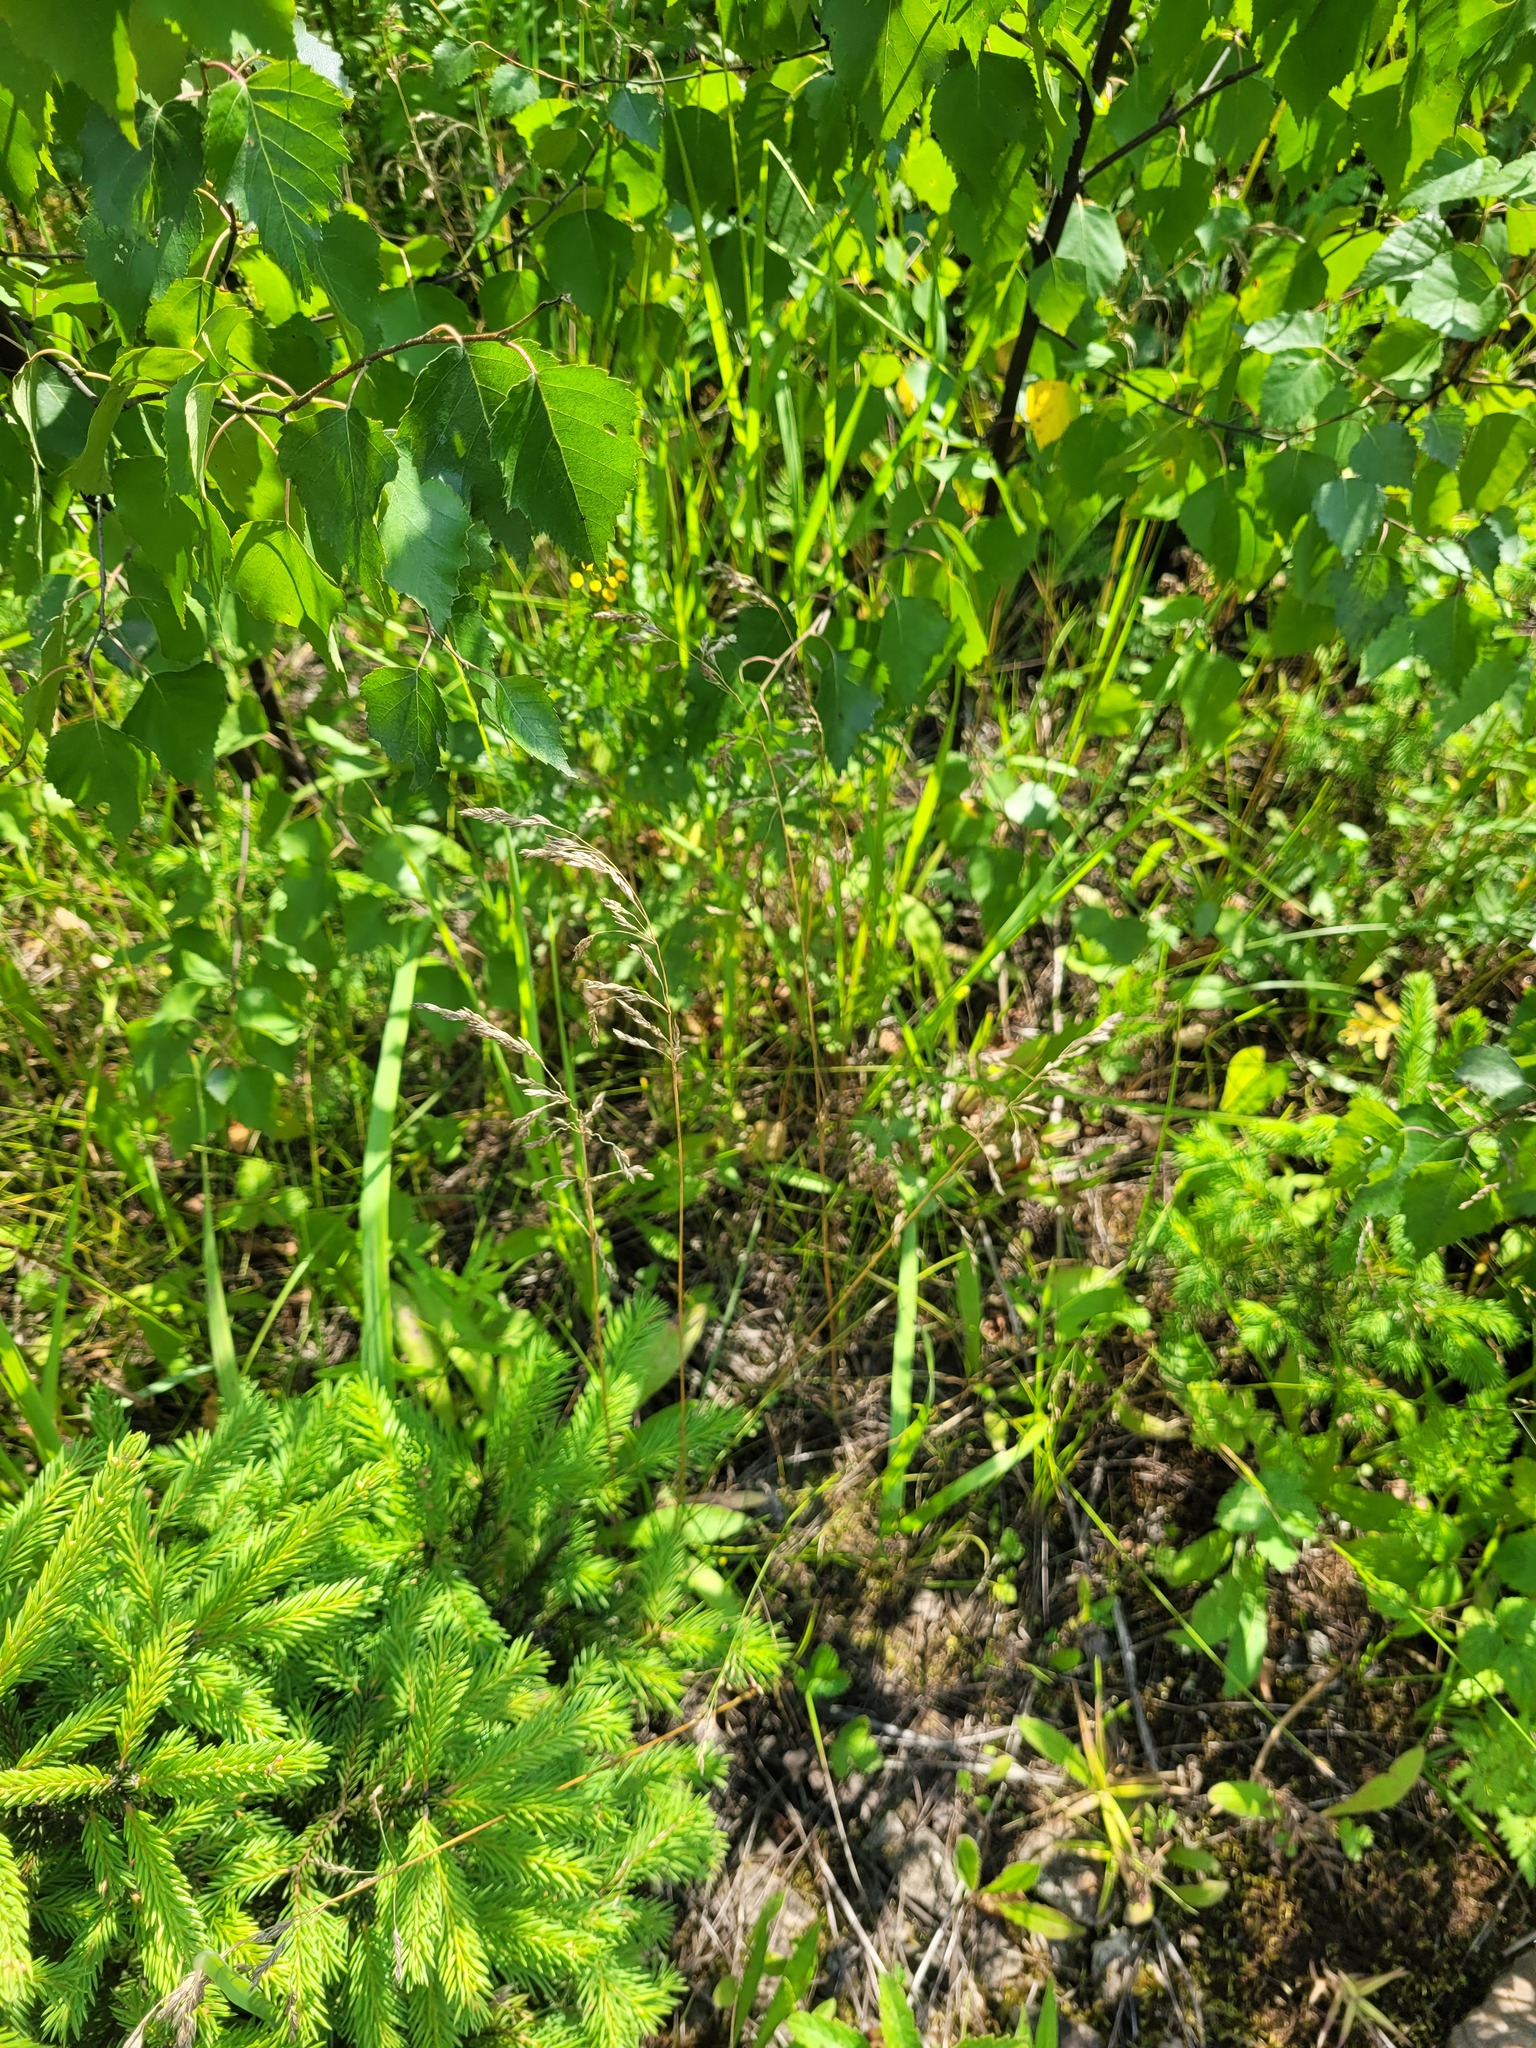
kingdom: Plantae
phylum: Tracheophyta
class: Liliopsida
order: Poales
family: Poaceae
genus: Poa
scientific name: Poa angustifolia
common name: Narrow-leaved meadow-grass
